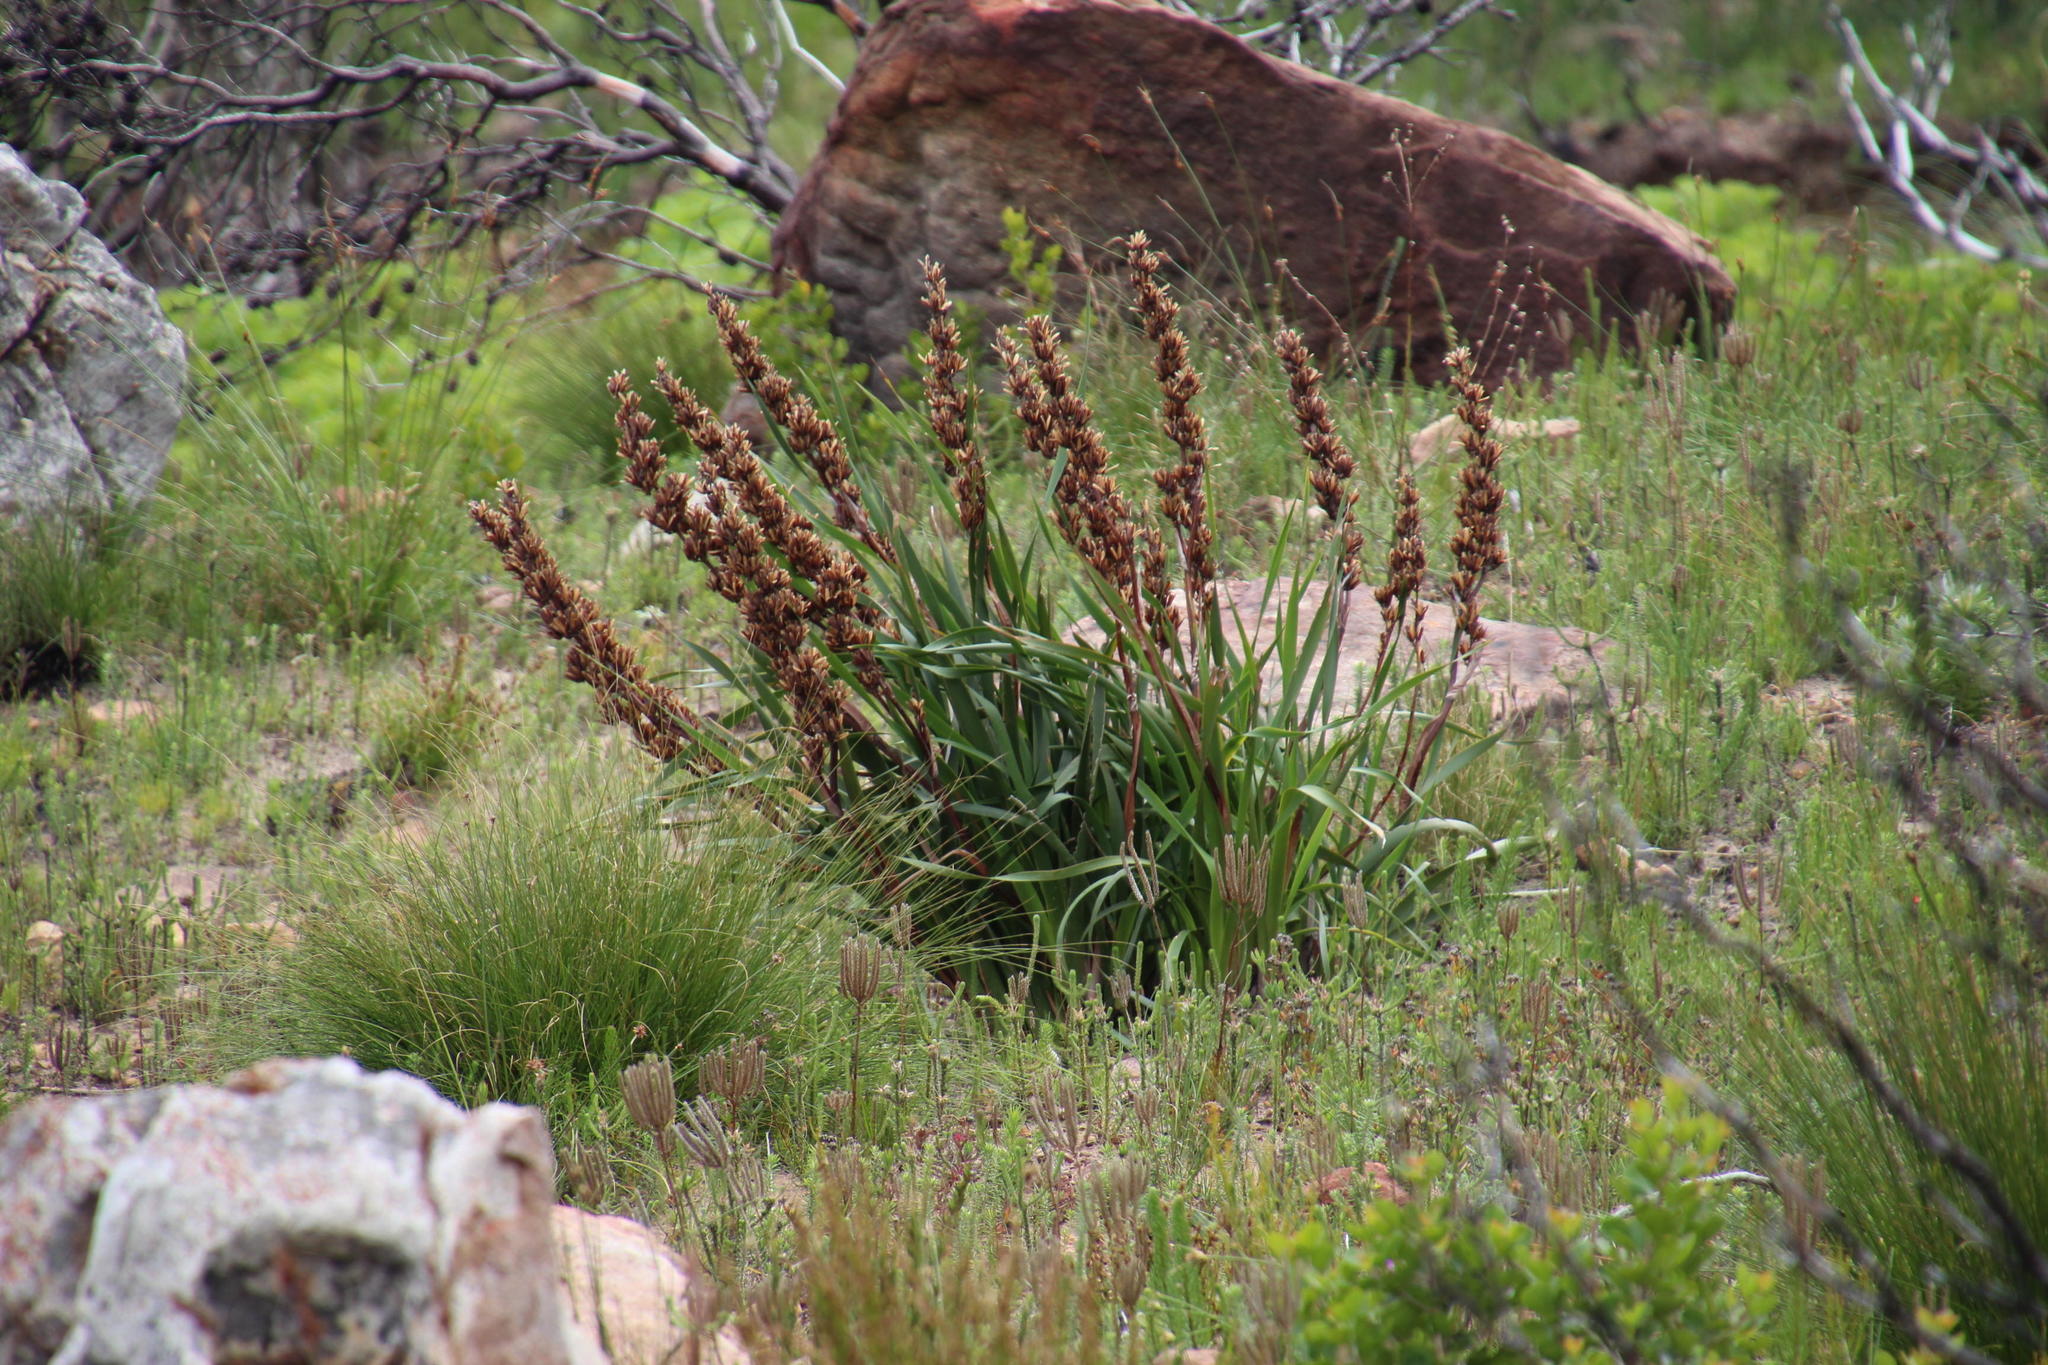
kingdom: Plantae
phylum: Tracheophyta
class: Liliopsida
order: Asparagales
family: Iridaceae
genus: Aristea
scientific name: Aristea capitata
